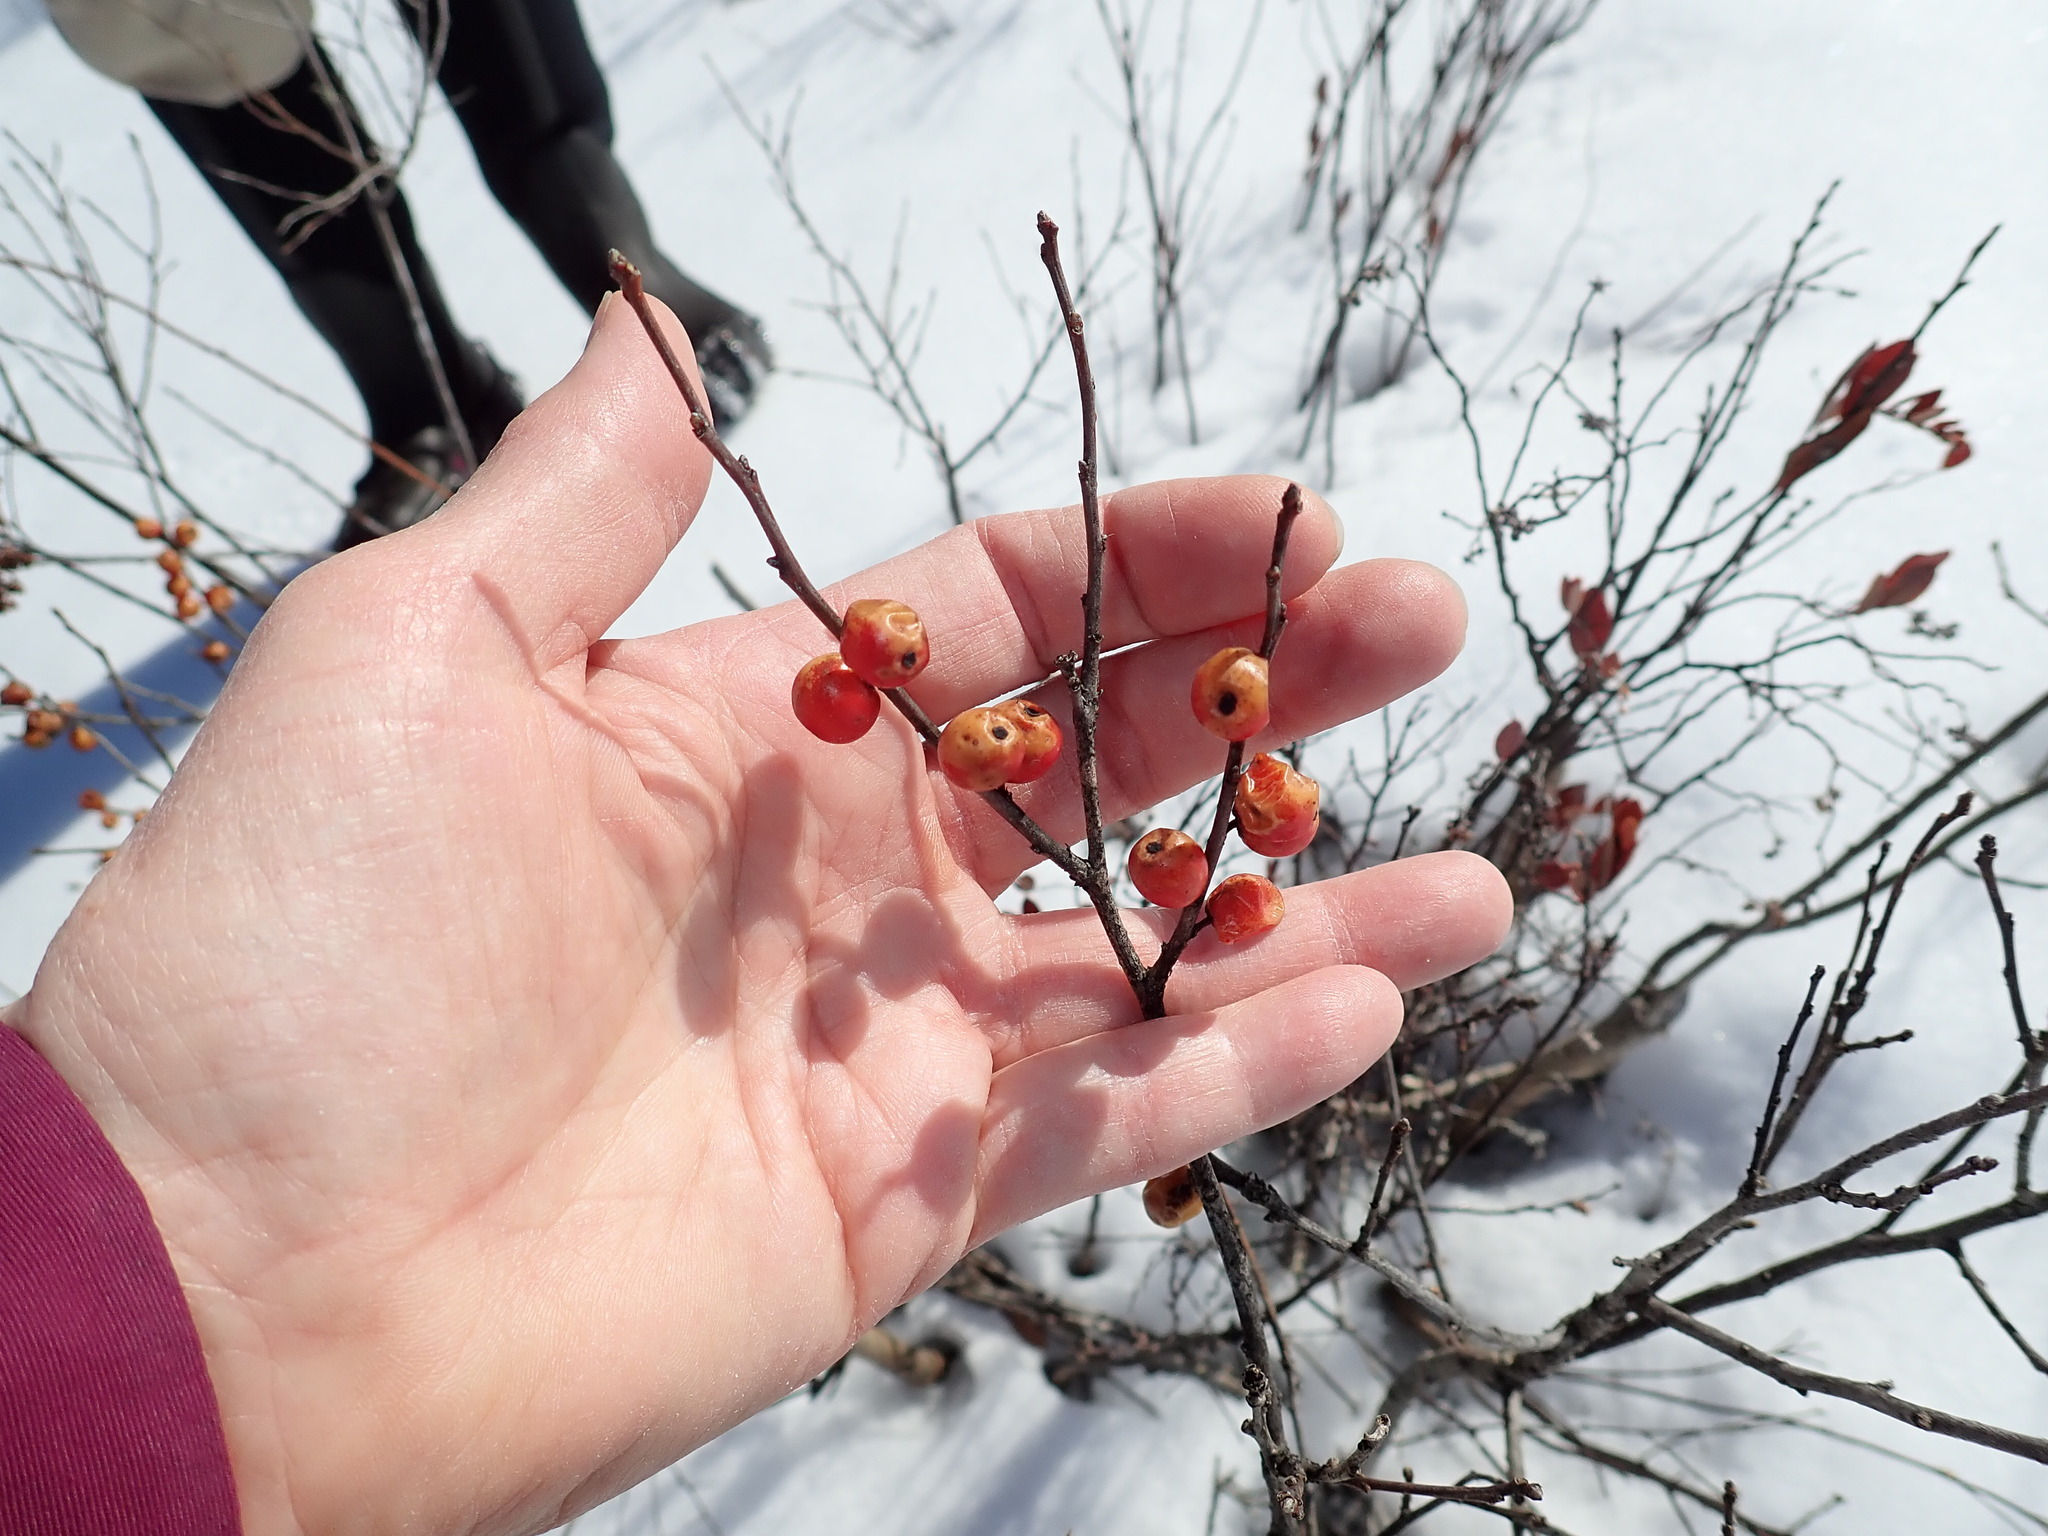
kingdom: Plantae
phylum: Tracheophyta
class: Magnoliopsida
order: Aquifoliales
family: Aquifoliaceae
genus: Ilex
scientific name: Ilex verticillata
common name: Virginia winterberry
